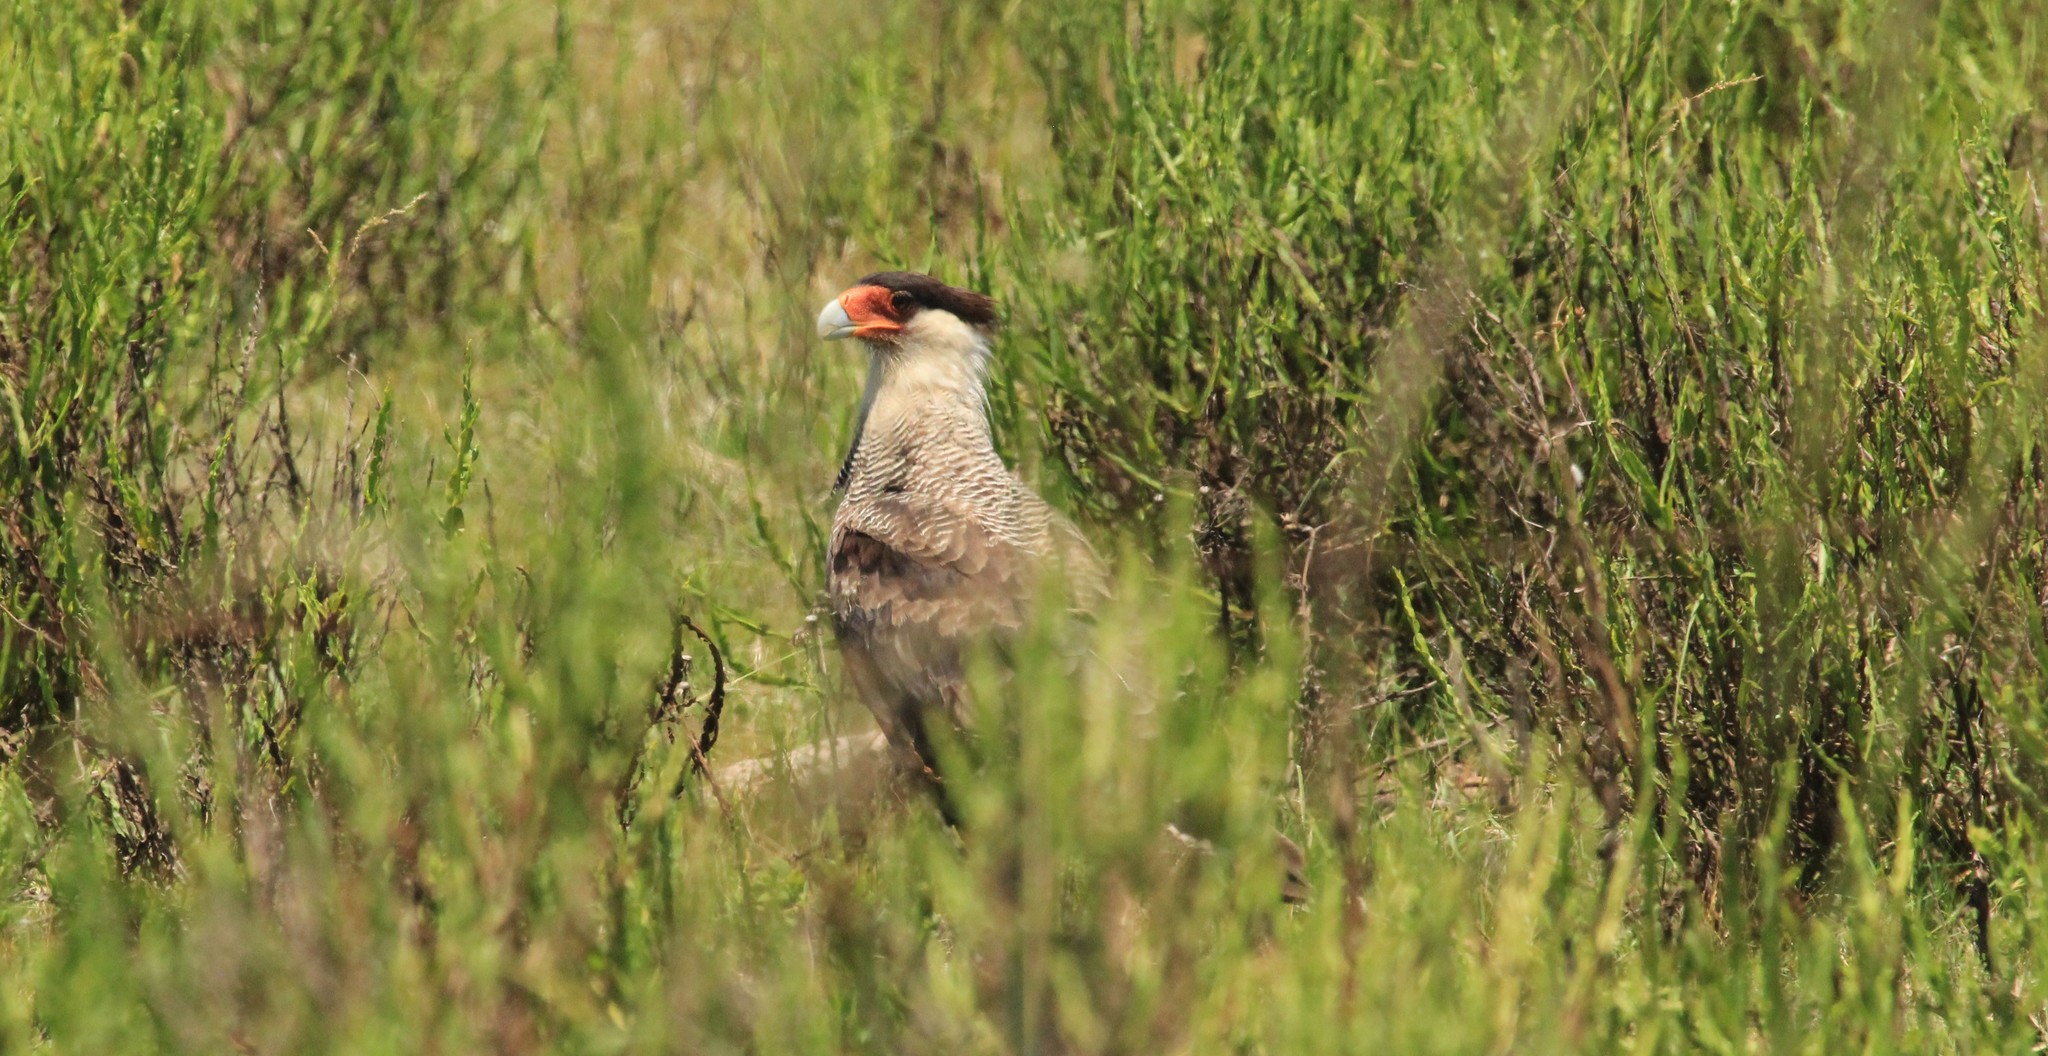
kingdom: Animalia
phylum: Chordata
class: Aves
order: Falconiformes
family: Falconidae
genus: Caracara
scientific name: Caracara plancus
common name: Southern caracara
